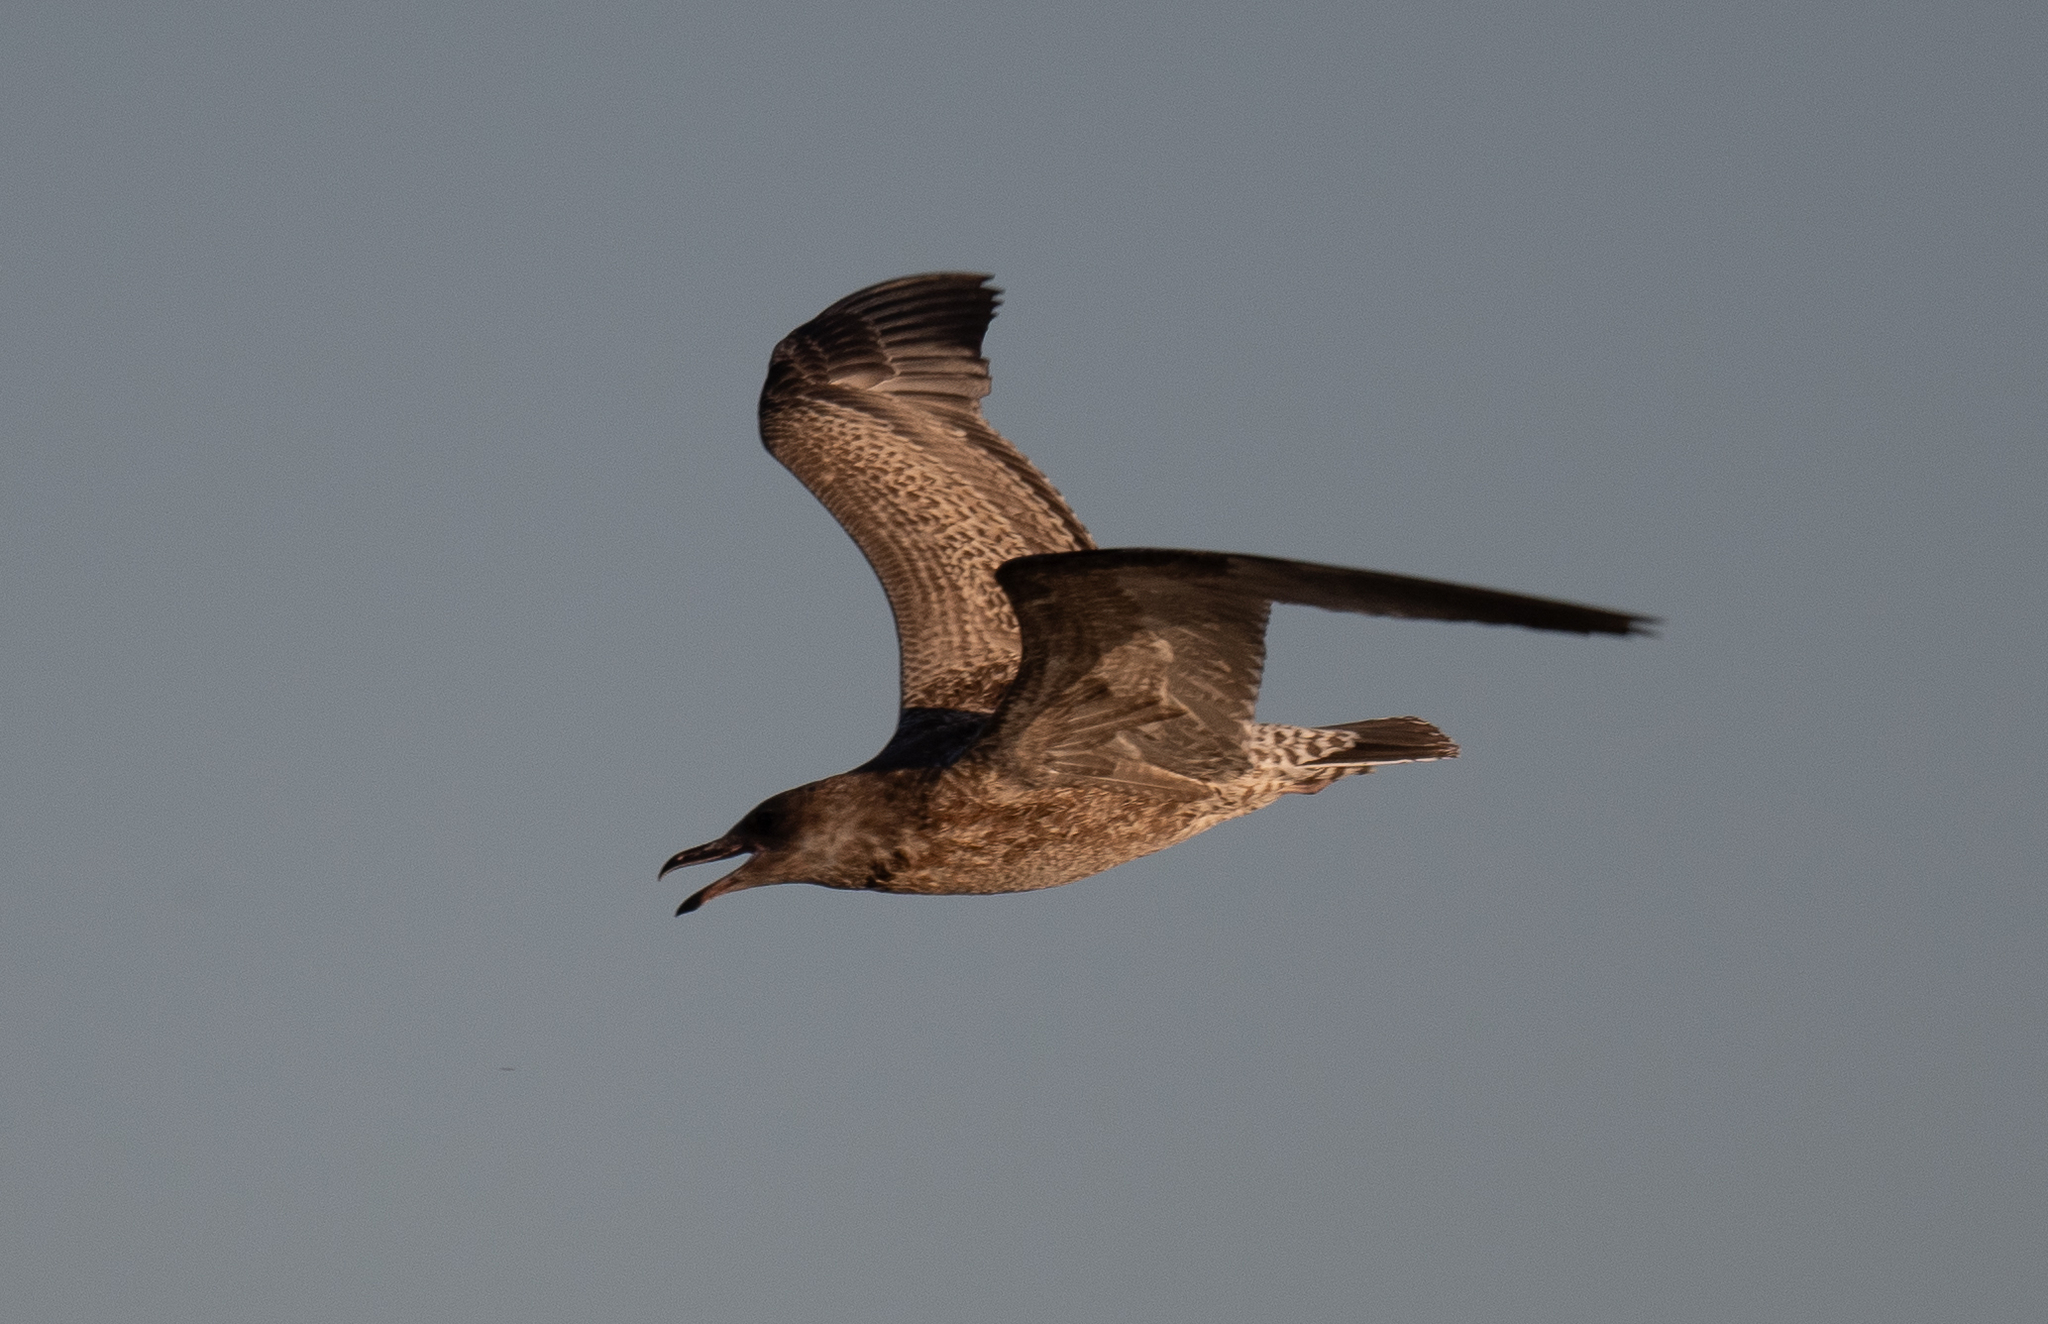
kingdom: Animalia
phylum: Chordata
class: Aves
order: Charadriiformes
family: Laridae
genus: Larus
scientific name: Larus californicus
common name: California gull
